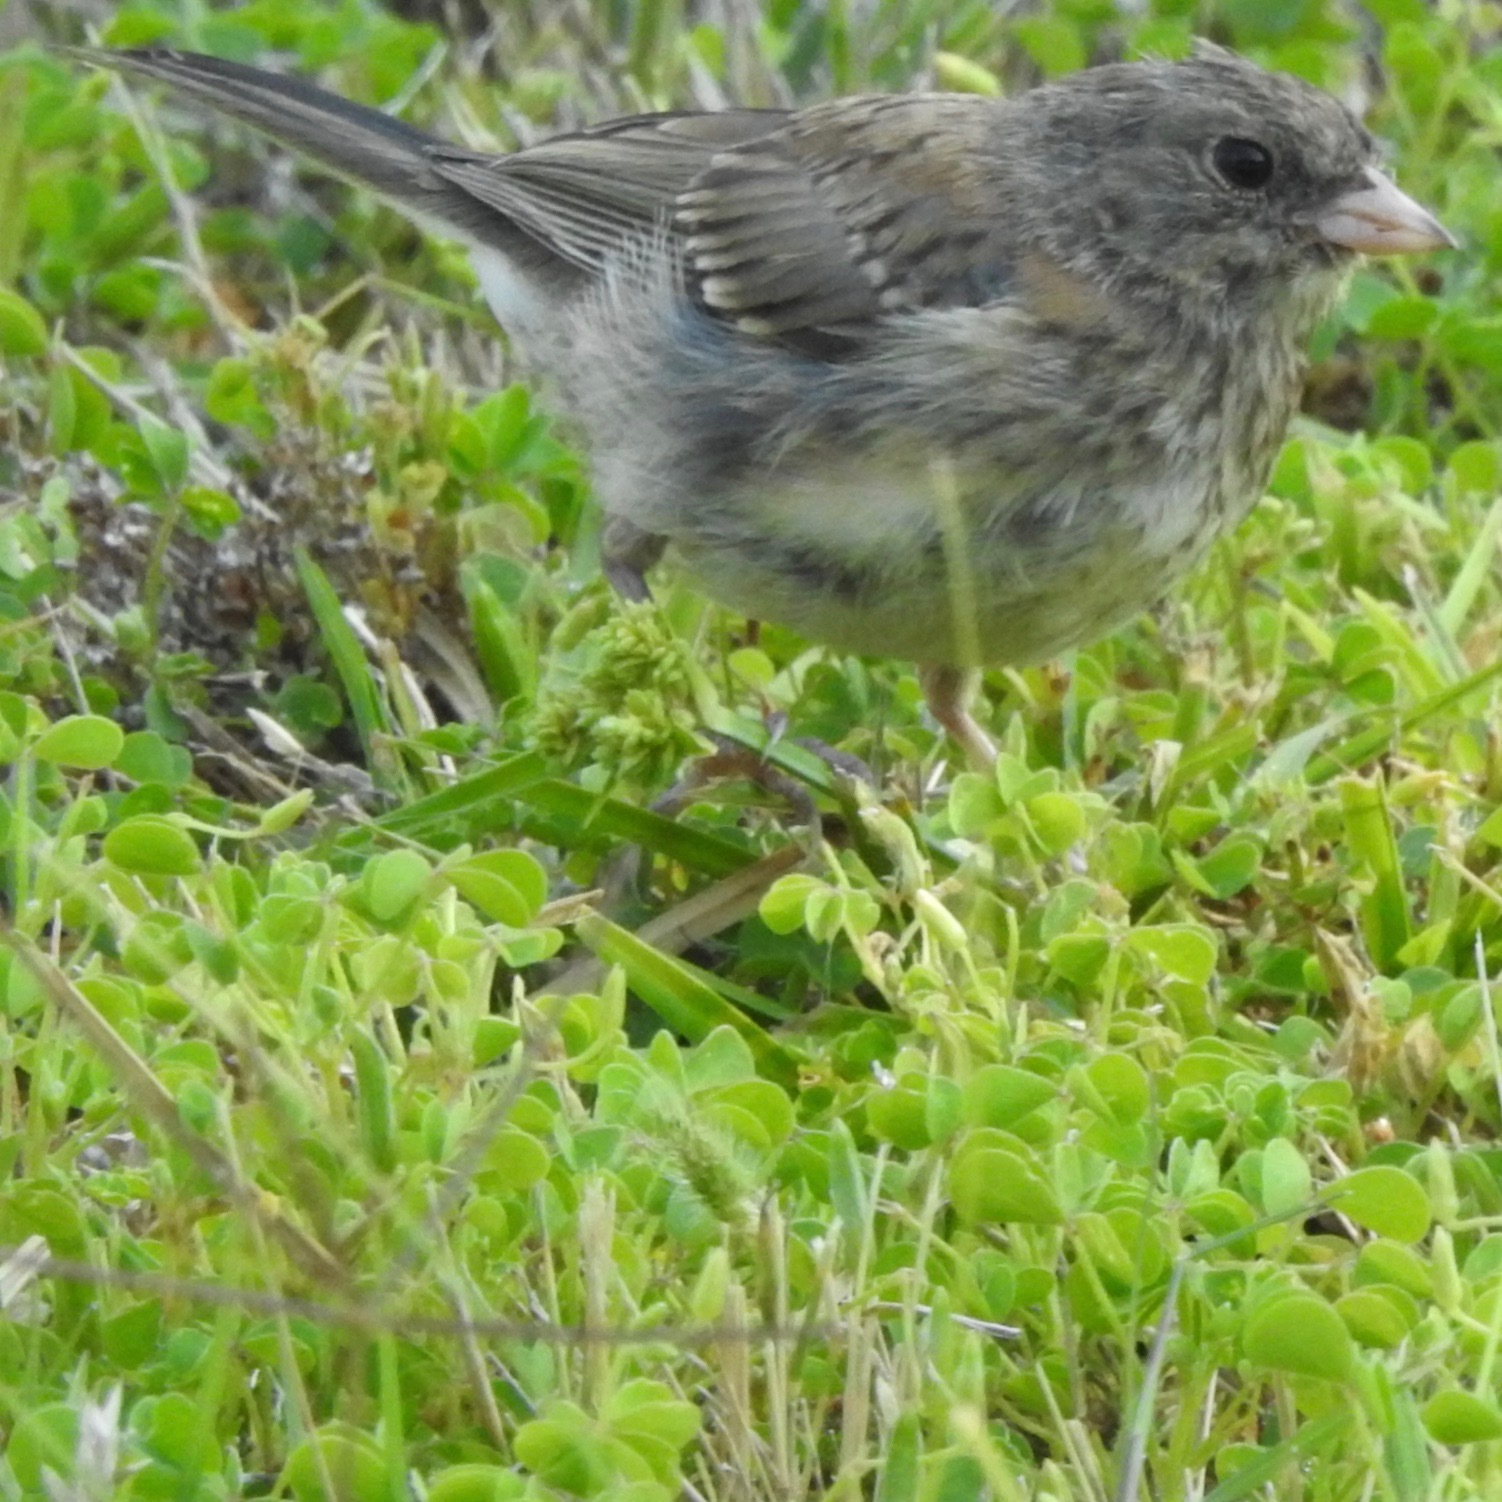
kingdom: Animalia
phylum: Chordata
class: Aves
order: Passeriformes
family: Passerellidae
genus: Junco
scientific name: Junco hyemalis
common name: Dark-eyed junco
